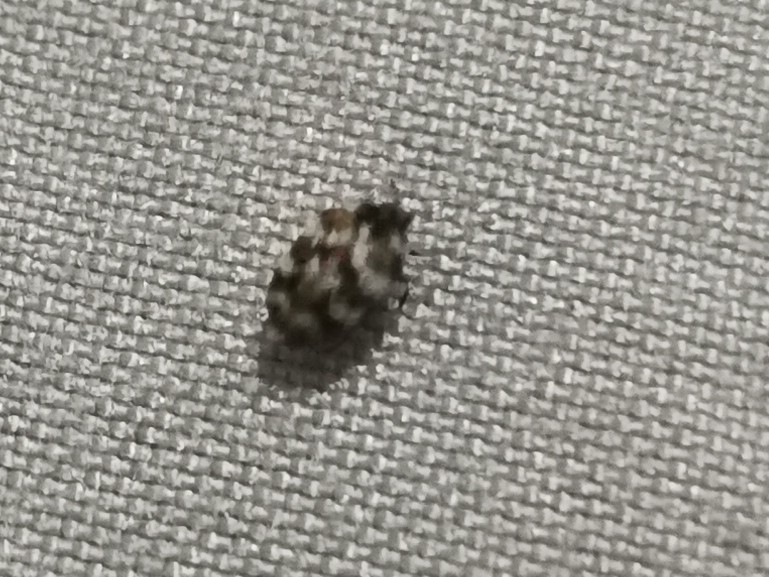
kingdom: Animalia
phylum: Arthropoda
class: Insecta
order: Coleoptera
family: Dermestidae
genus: Anthrenus
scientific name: Anthrenus verbasci
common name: Varied carpet beetle
